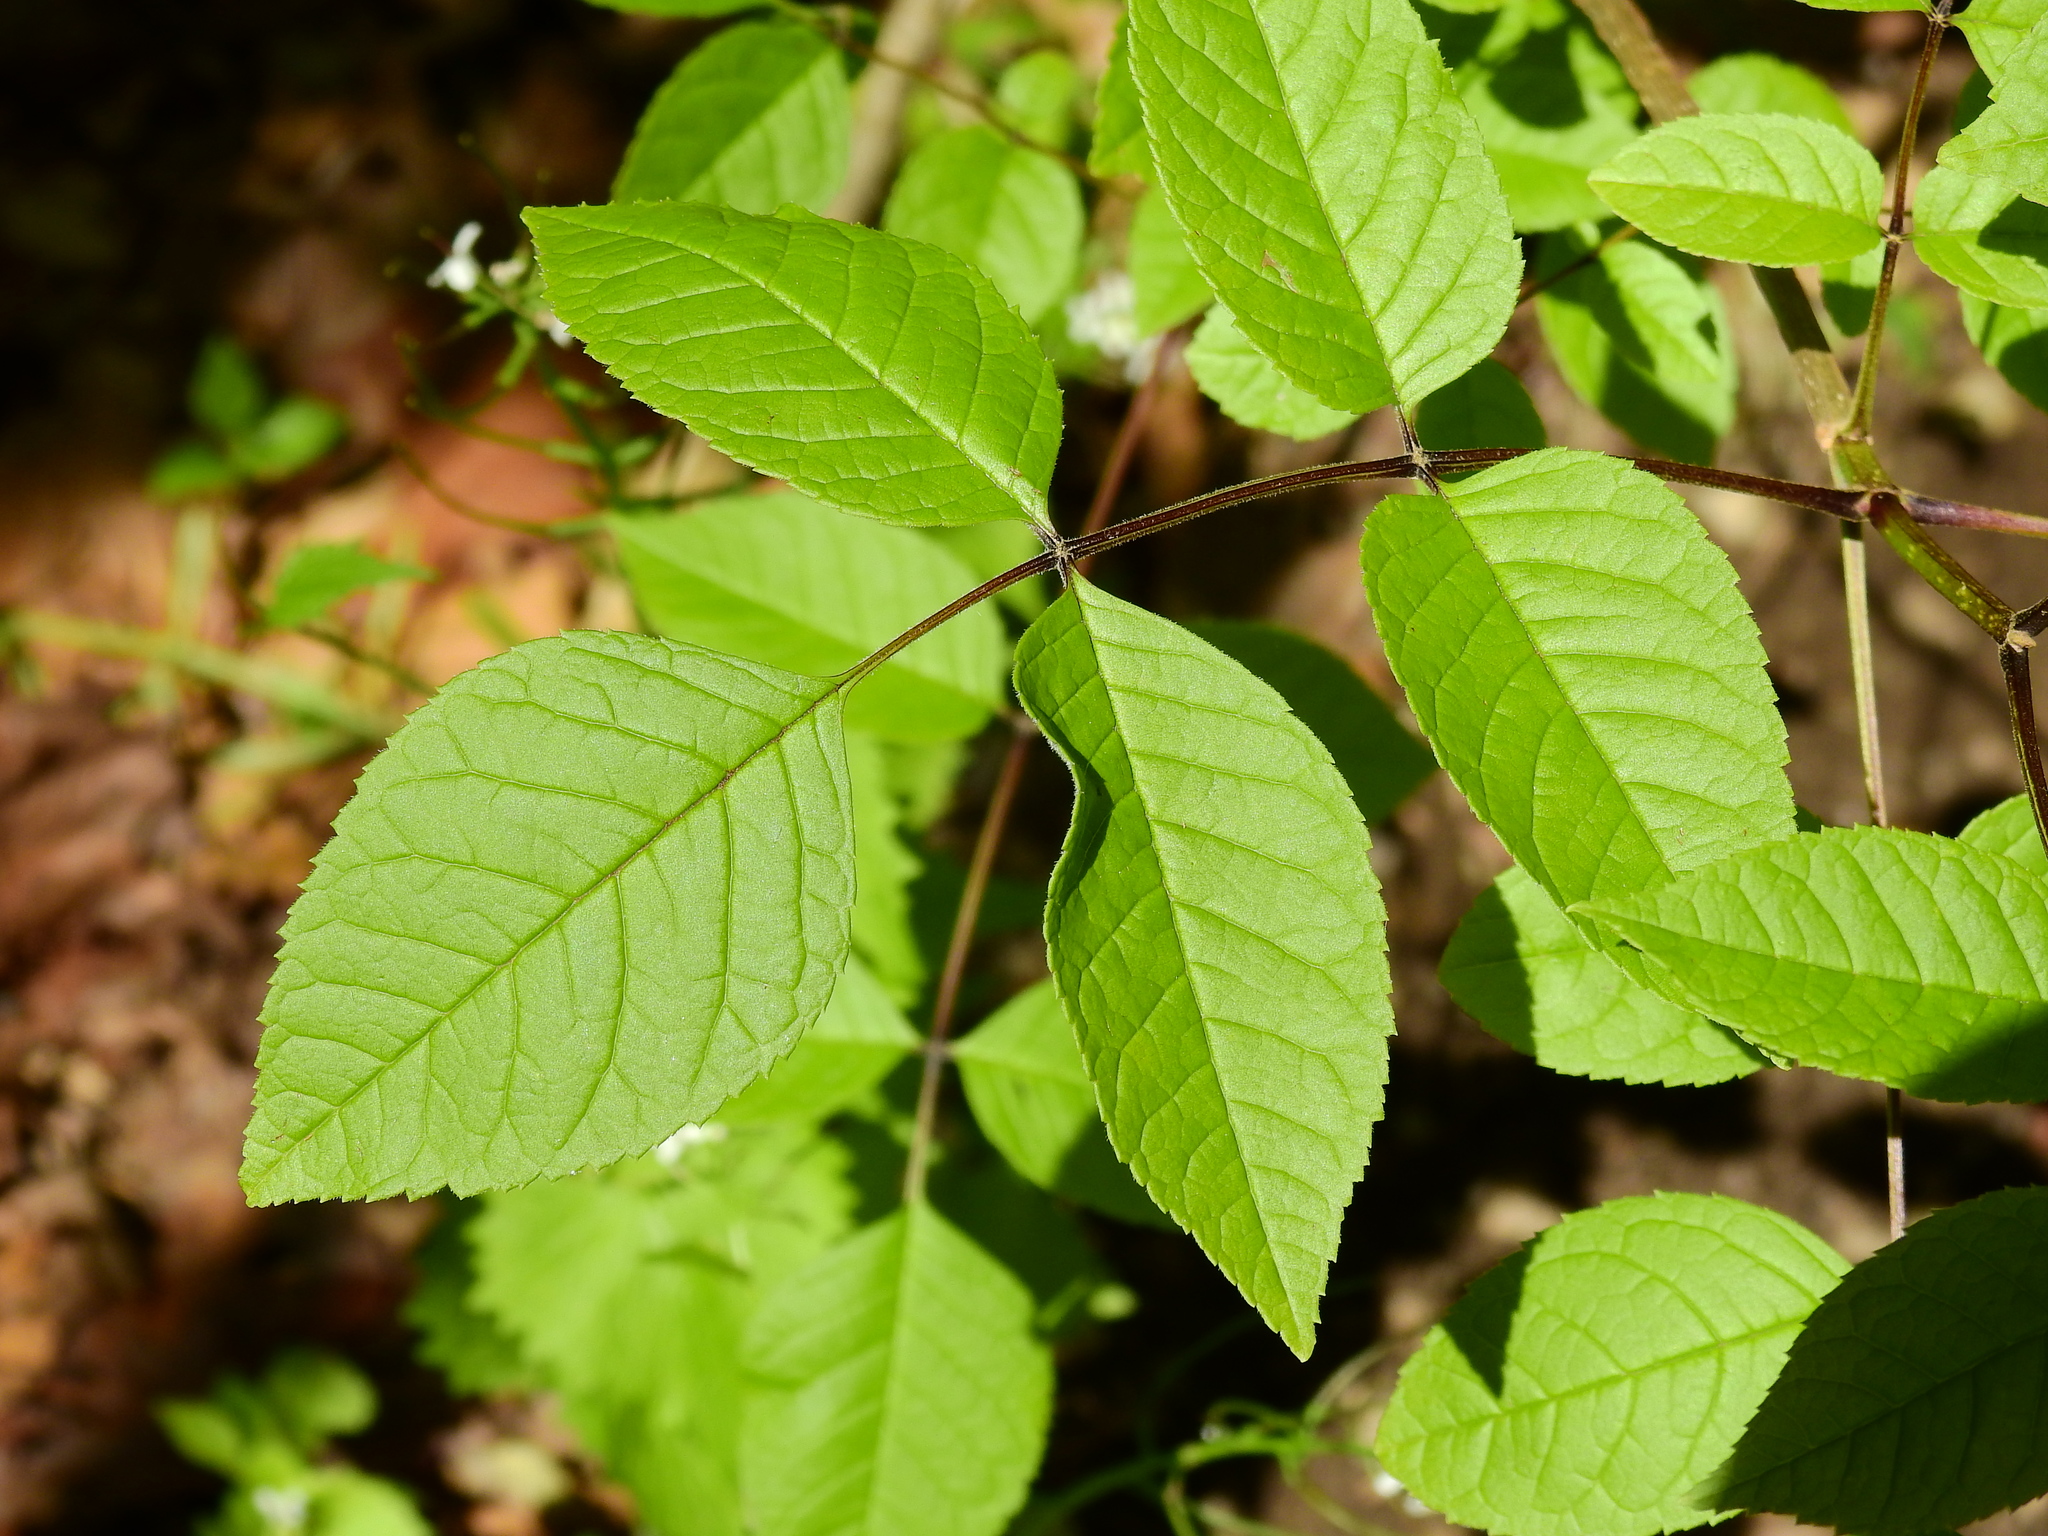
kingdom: Plantae
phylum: Tracheophyta
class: Magnoliopsida
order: Lamiales
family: Oleaceae
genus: Fraxinus
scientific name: Fraxinus quadrangulata
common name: Blue ash
